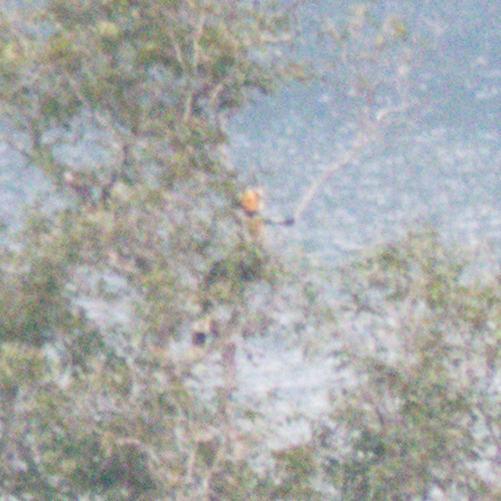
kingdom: Animalia
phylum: Chordata
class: Aves
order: Bucerotiformes
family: Bucerotidae
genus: Buceros
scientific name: Buceros bicornis
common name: Great hornbill
